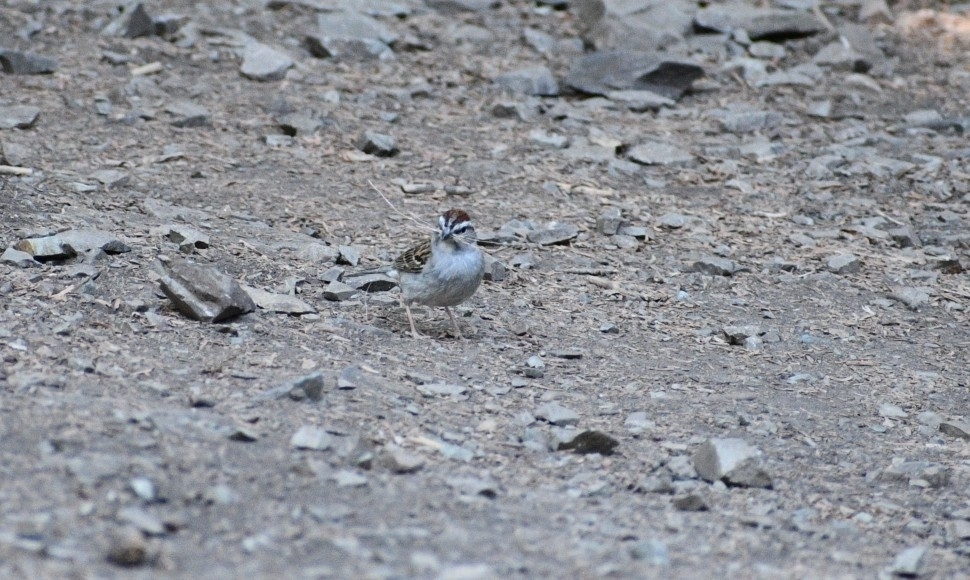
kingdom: Animalia
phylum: Chordata
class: Aves
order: Passeriformes
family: Passerellidae
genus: Spizella
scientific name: Spizella passerina
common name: Chipping sparrow
